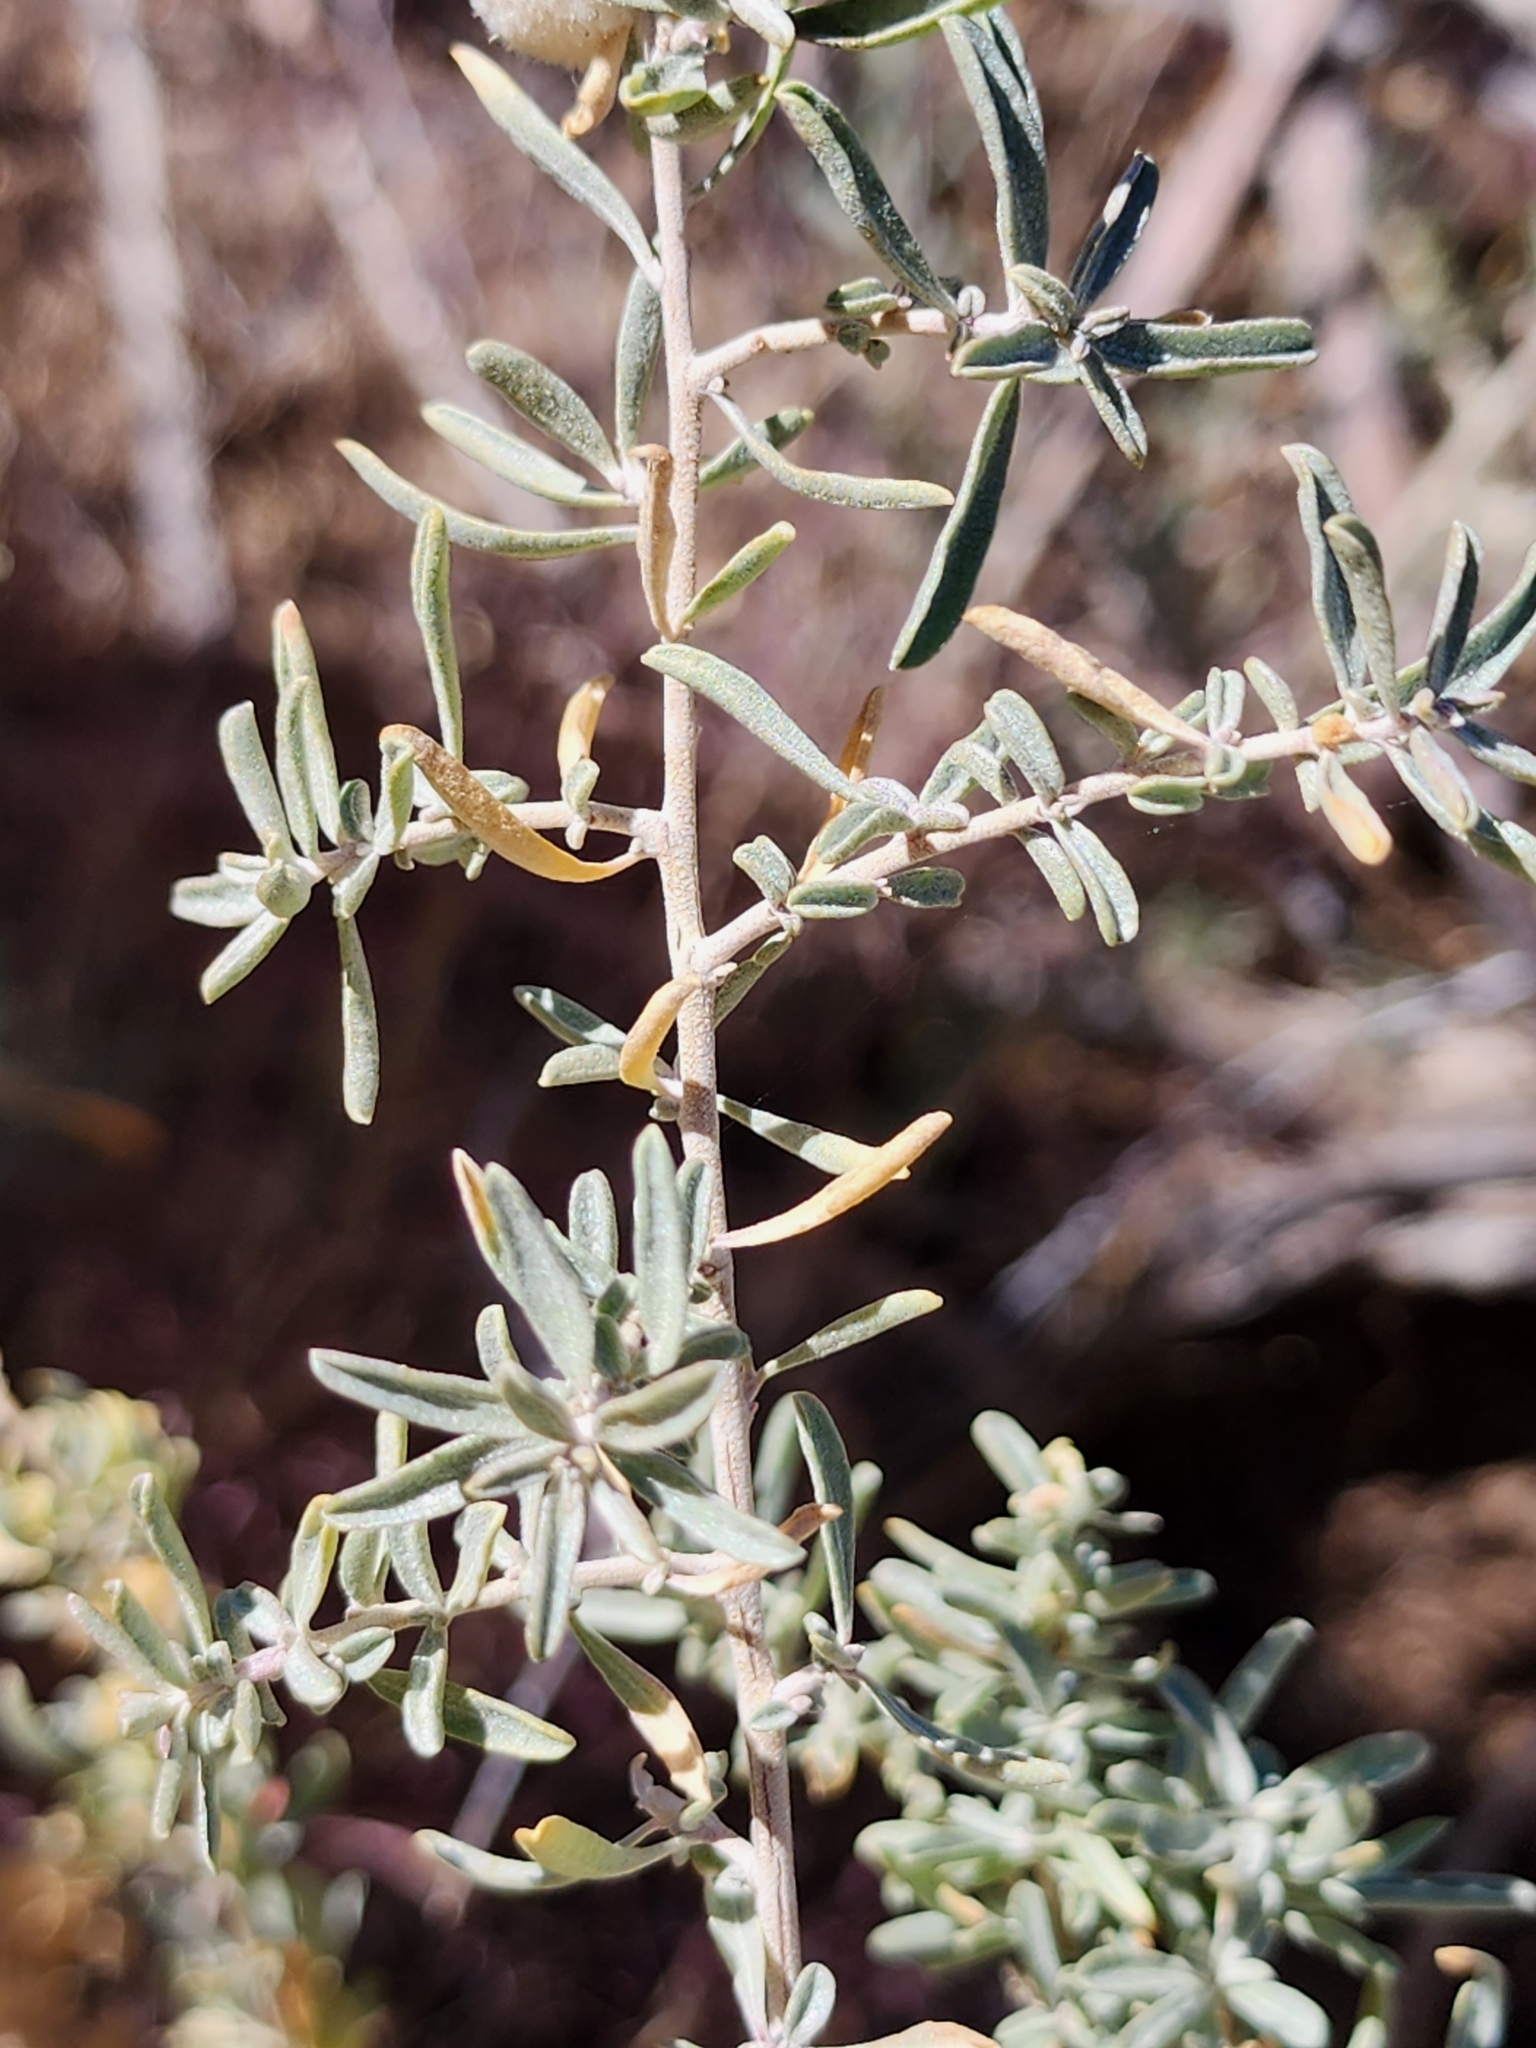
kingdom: Animalia
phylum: Arthropoda
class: Insecta
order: Diptera
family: Cecidomyiidae
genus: Asphondylia
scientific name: Asphondylia neomexicana
